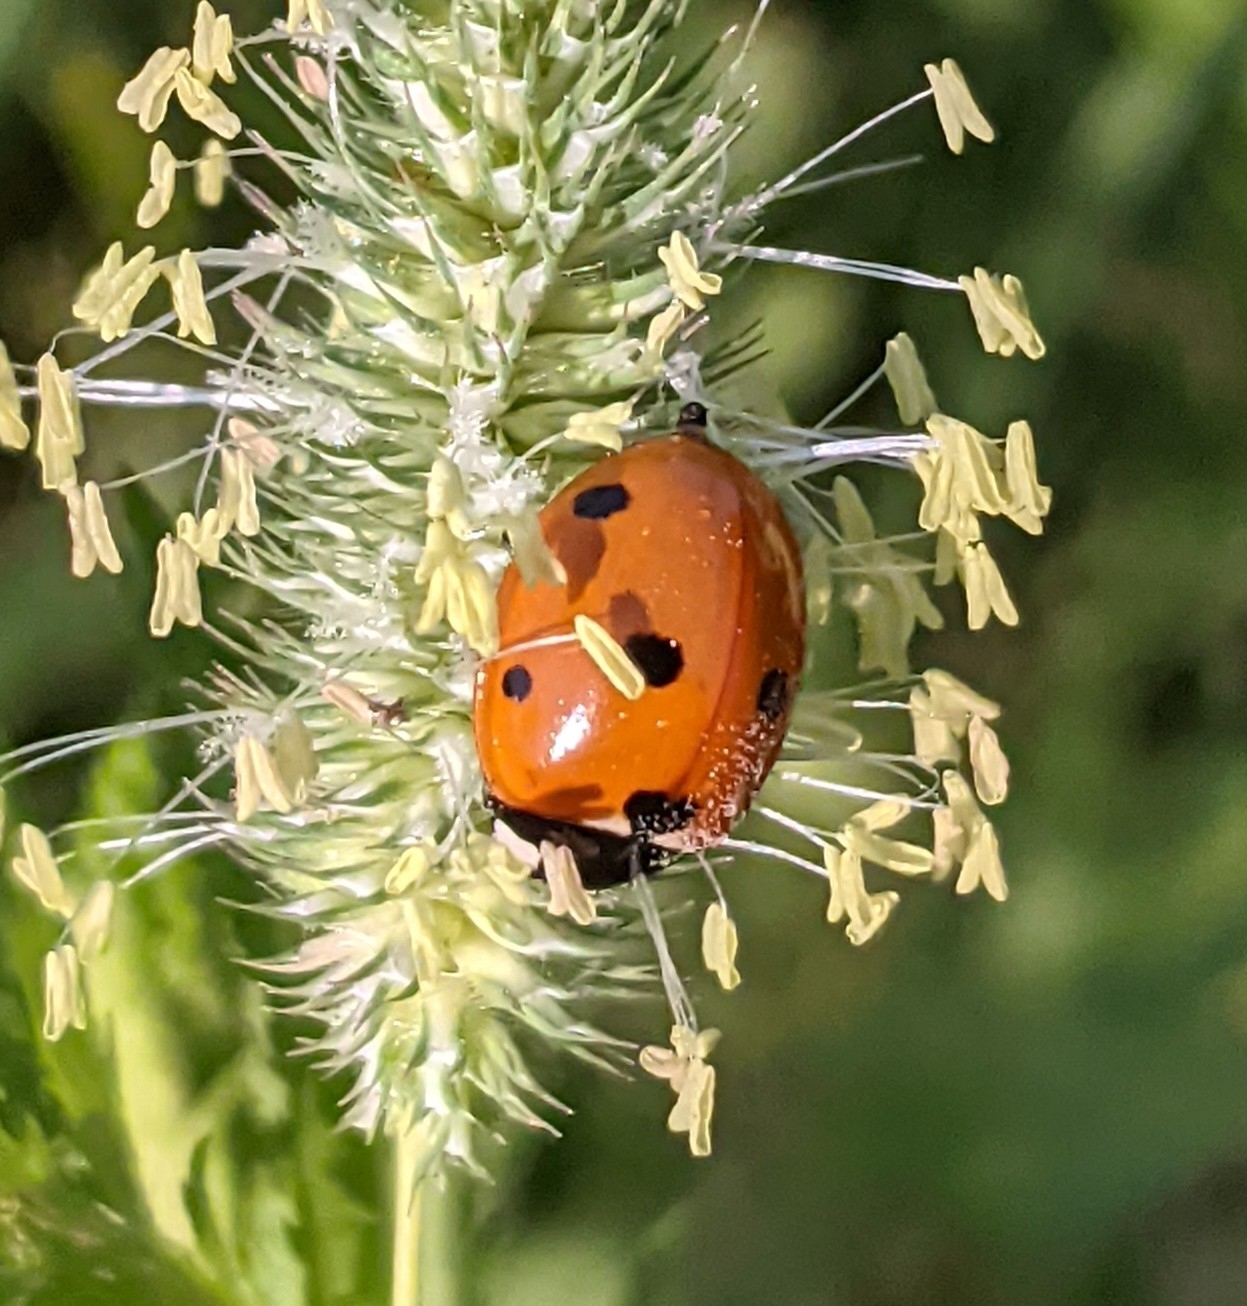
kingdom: Animalia
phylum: Arthropoda
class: Insecta
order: Coleoptera
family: Coccinellidae
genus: Coccinella
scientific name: Coccinella septempunctata
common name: Sevenspotted lady beetle
